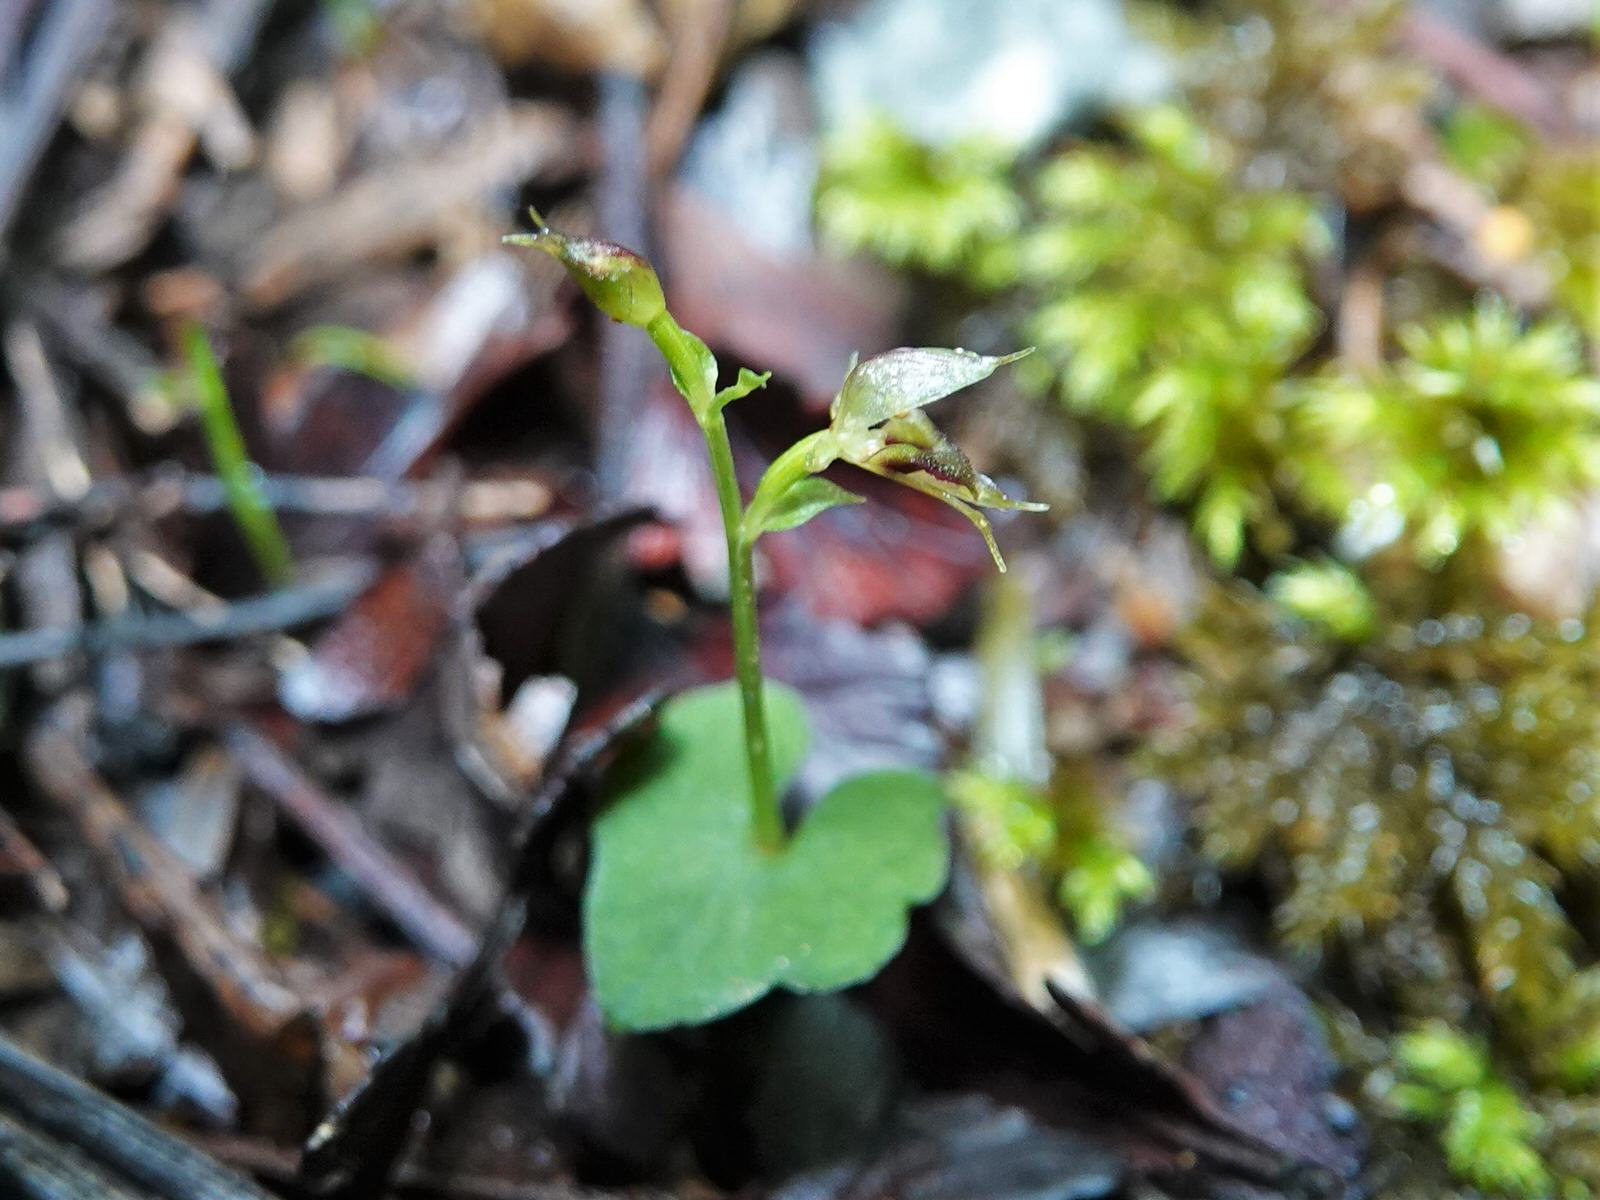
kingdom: Plantae
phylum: Tracheophyta
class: Liliopsida
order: Asparagales
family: Orchidaceae
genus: Acianthus
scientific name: Acianthus sinclairii
